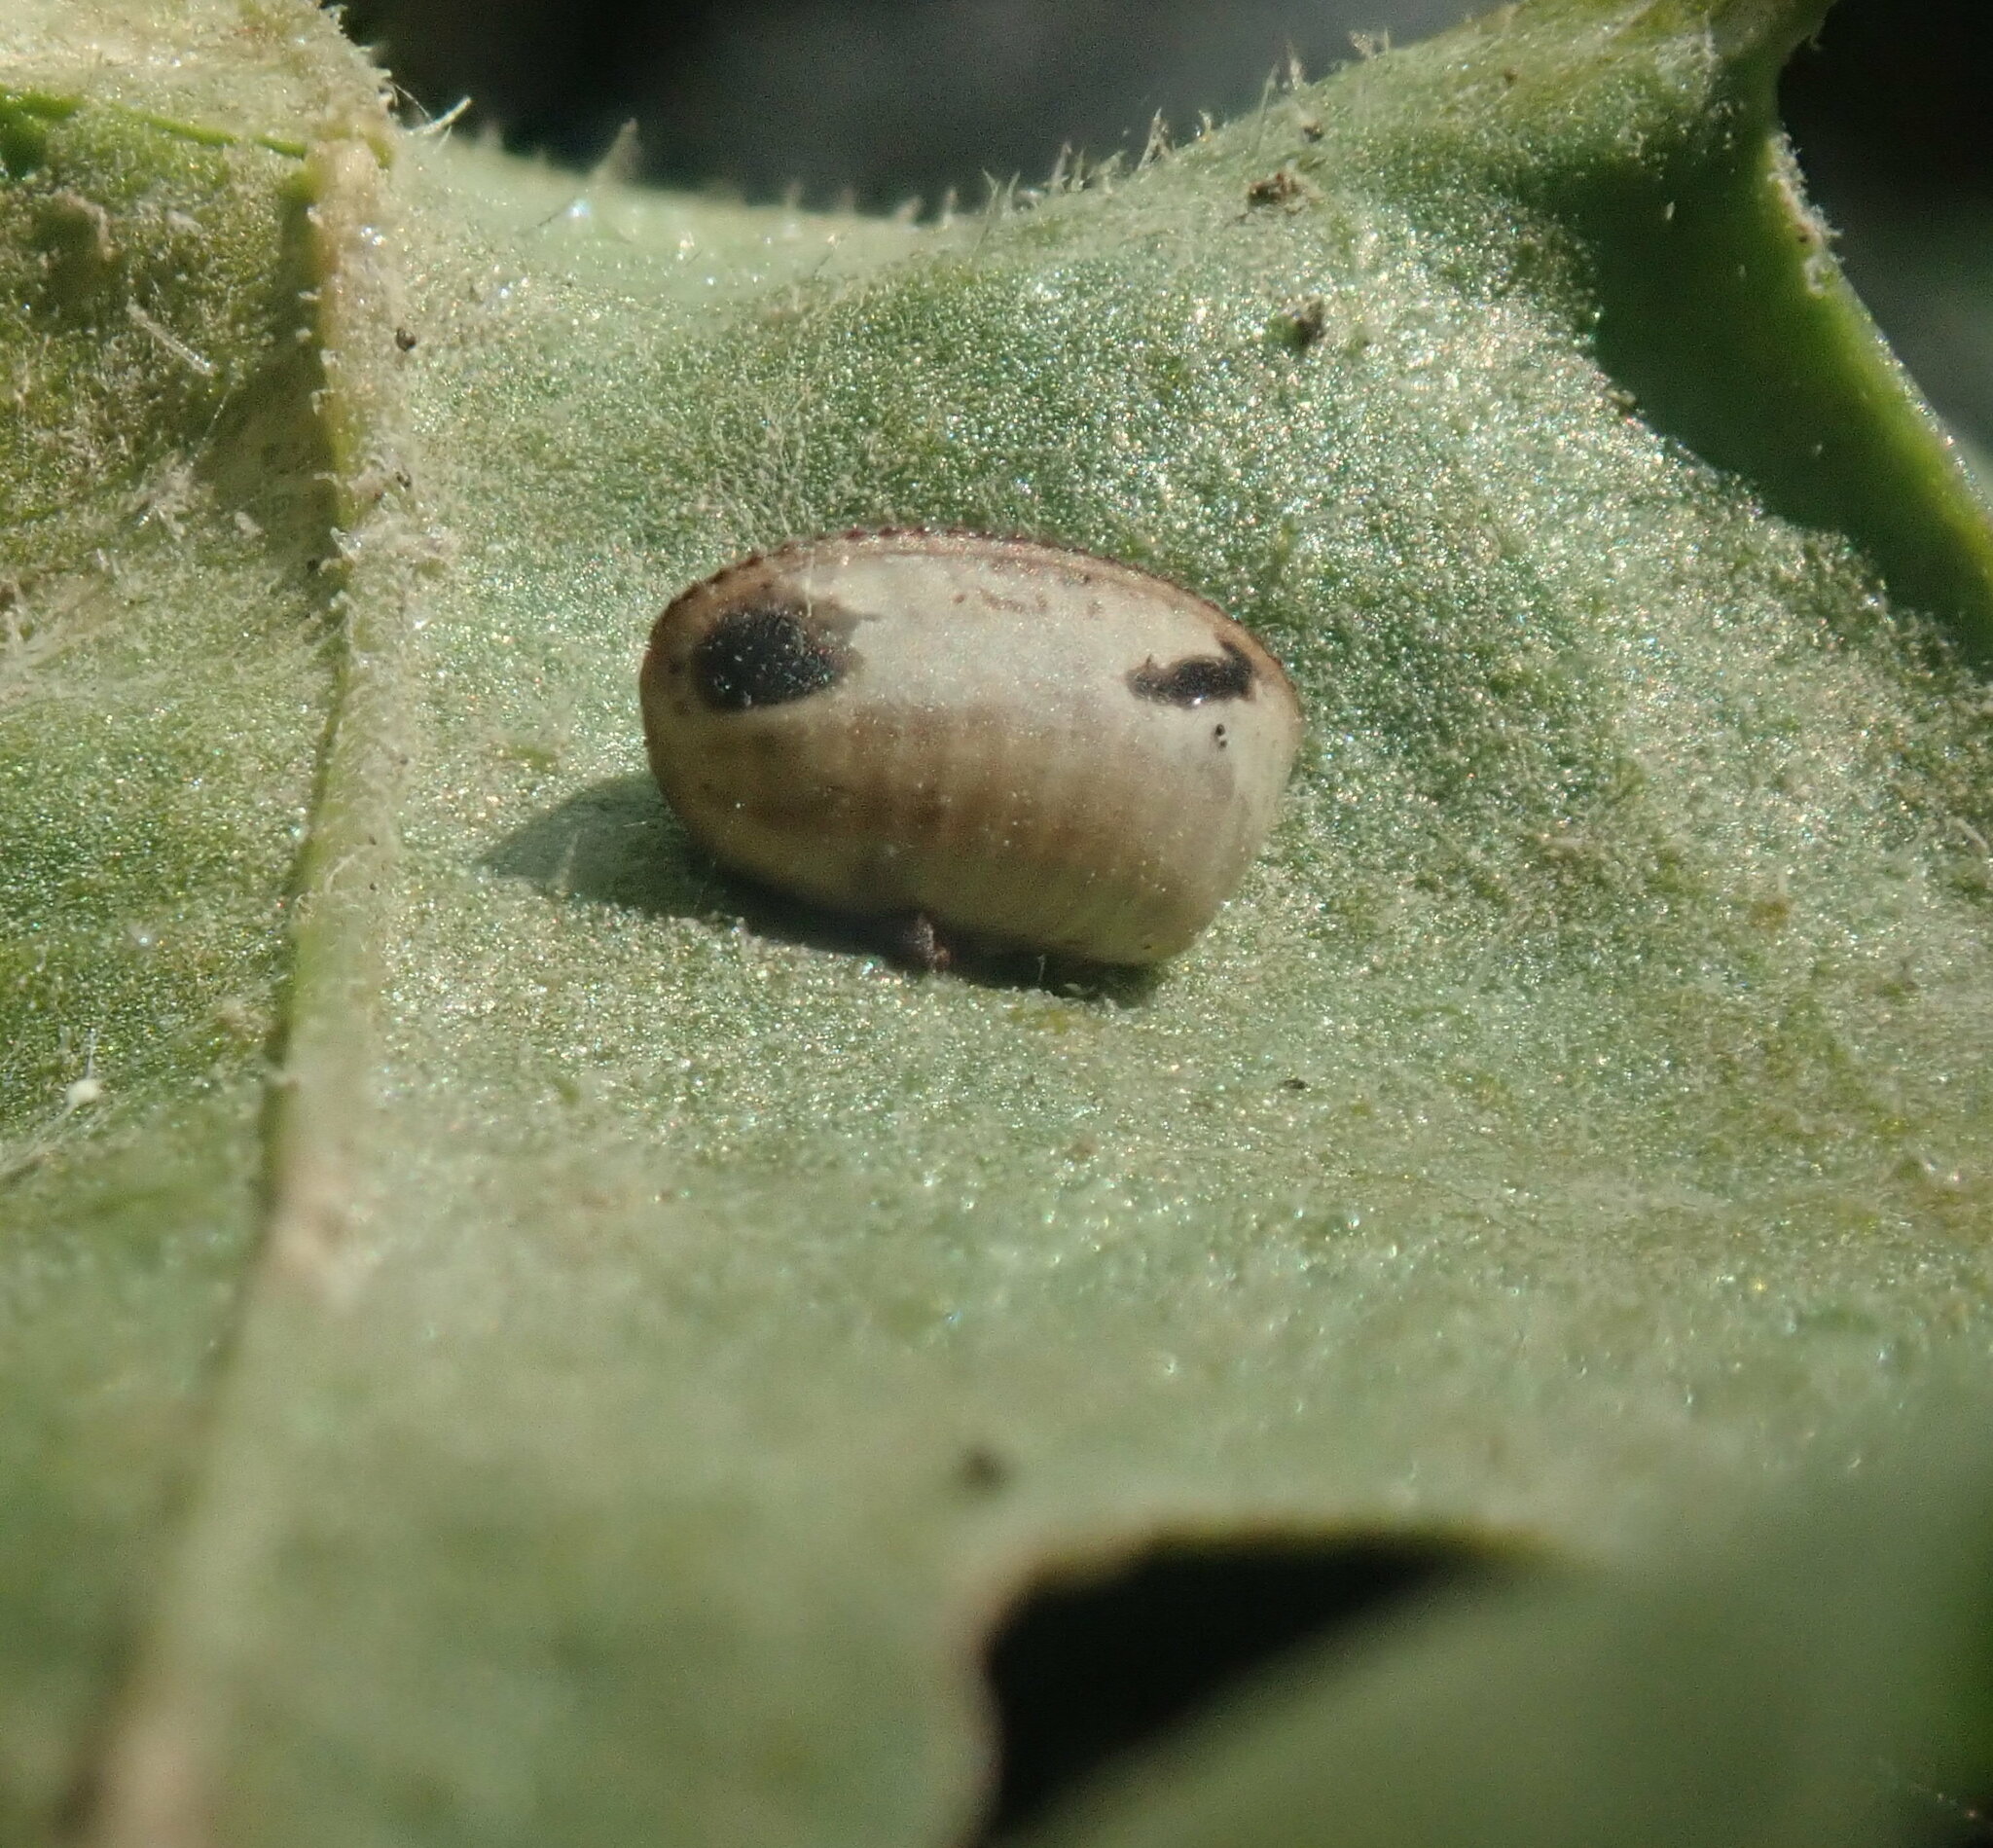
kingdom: Animalia
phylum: Arthropoda
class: Insecta
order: Blattodea
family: Ectobiidae
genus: Balta
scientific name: Balta bicolor
